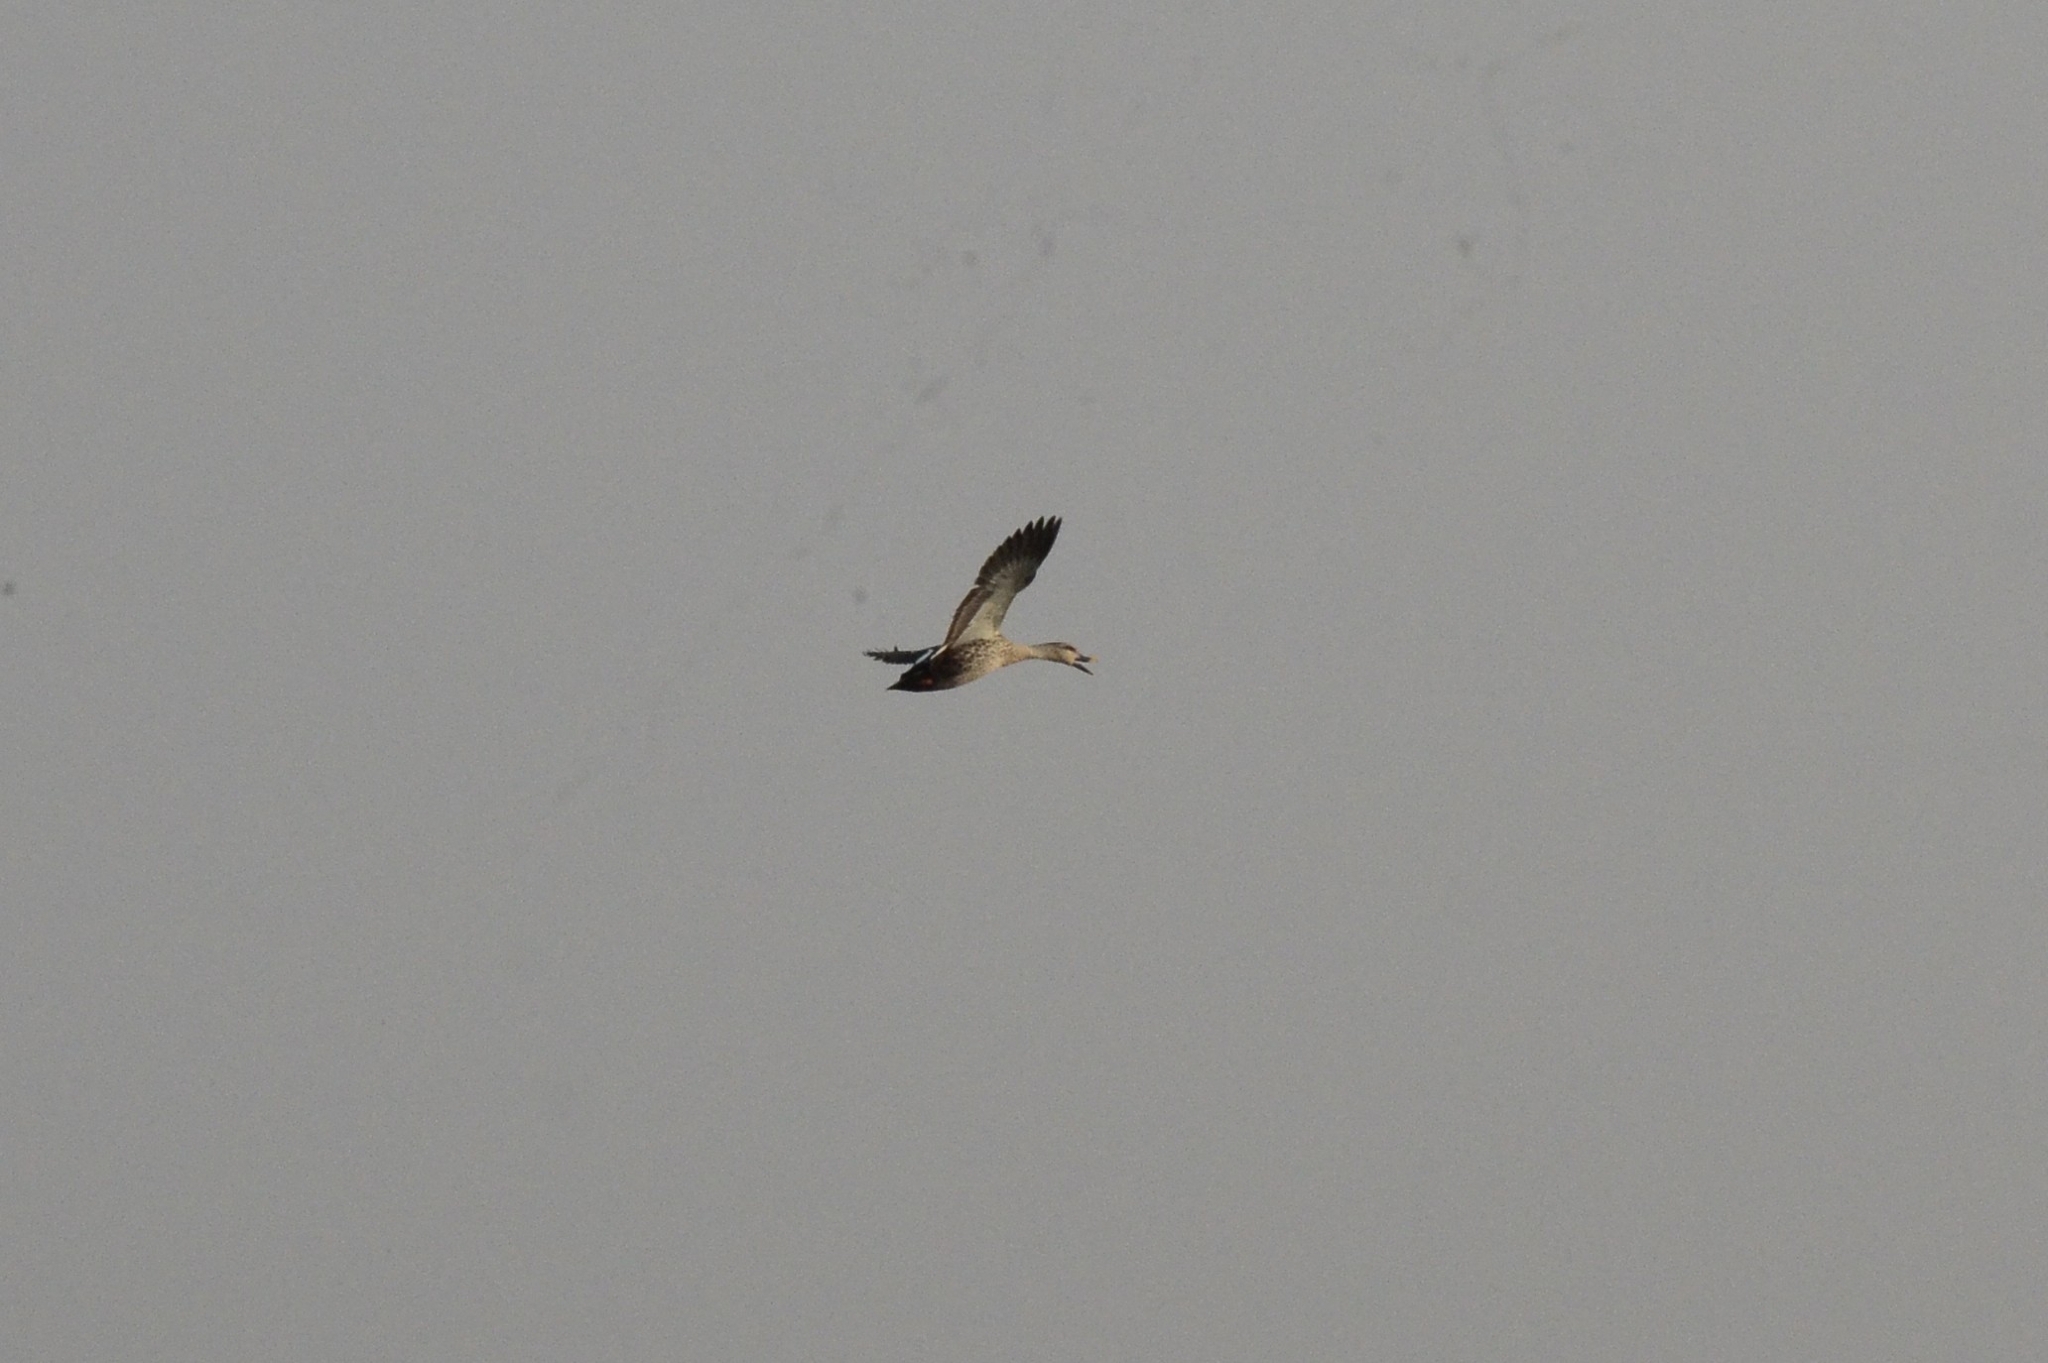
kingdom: Animalia
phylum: Chordata
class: Aves
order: Anseriformes
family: Anatidae
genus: Anas
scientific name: Anas poecilorhyncha
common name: Indian spot-billed duck
